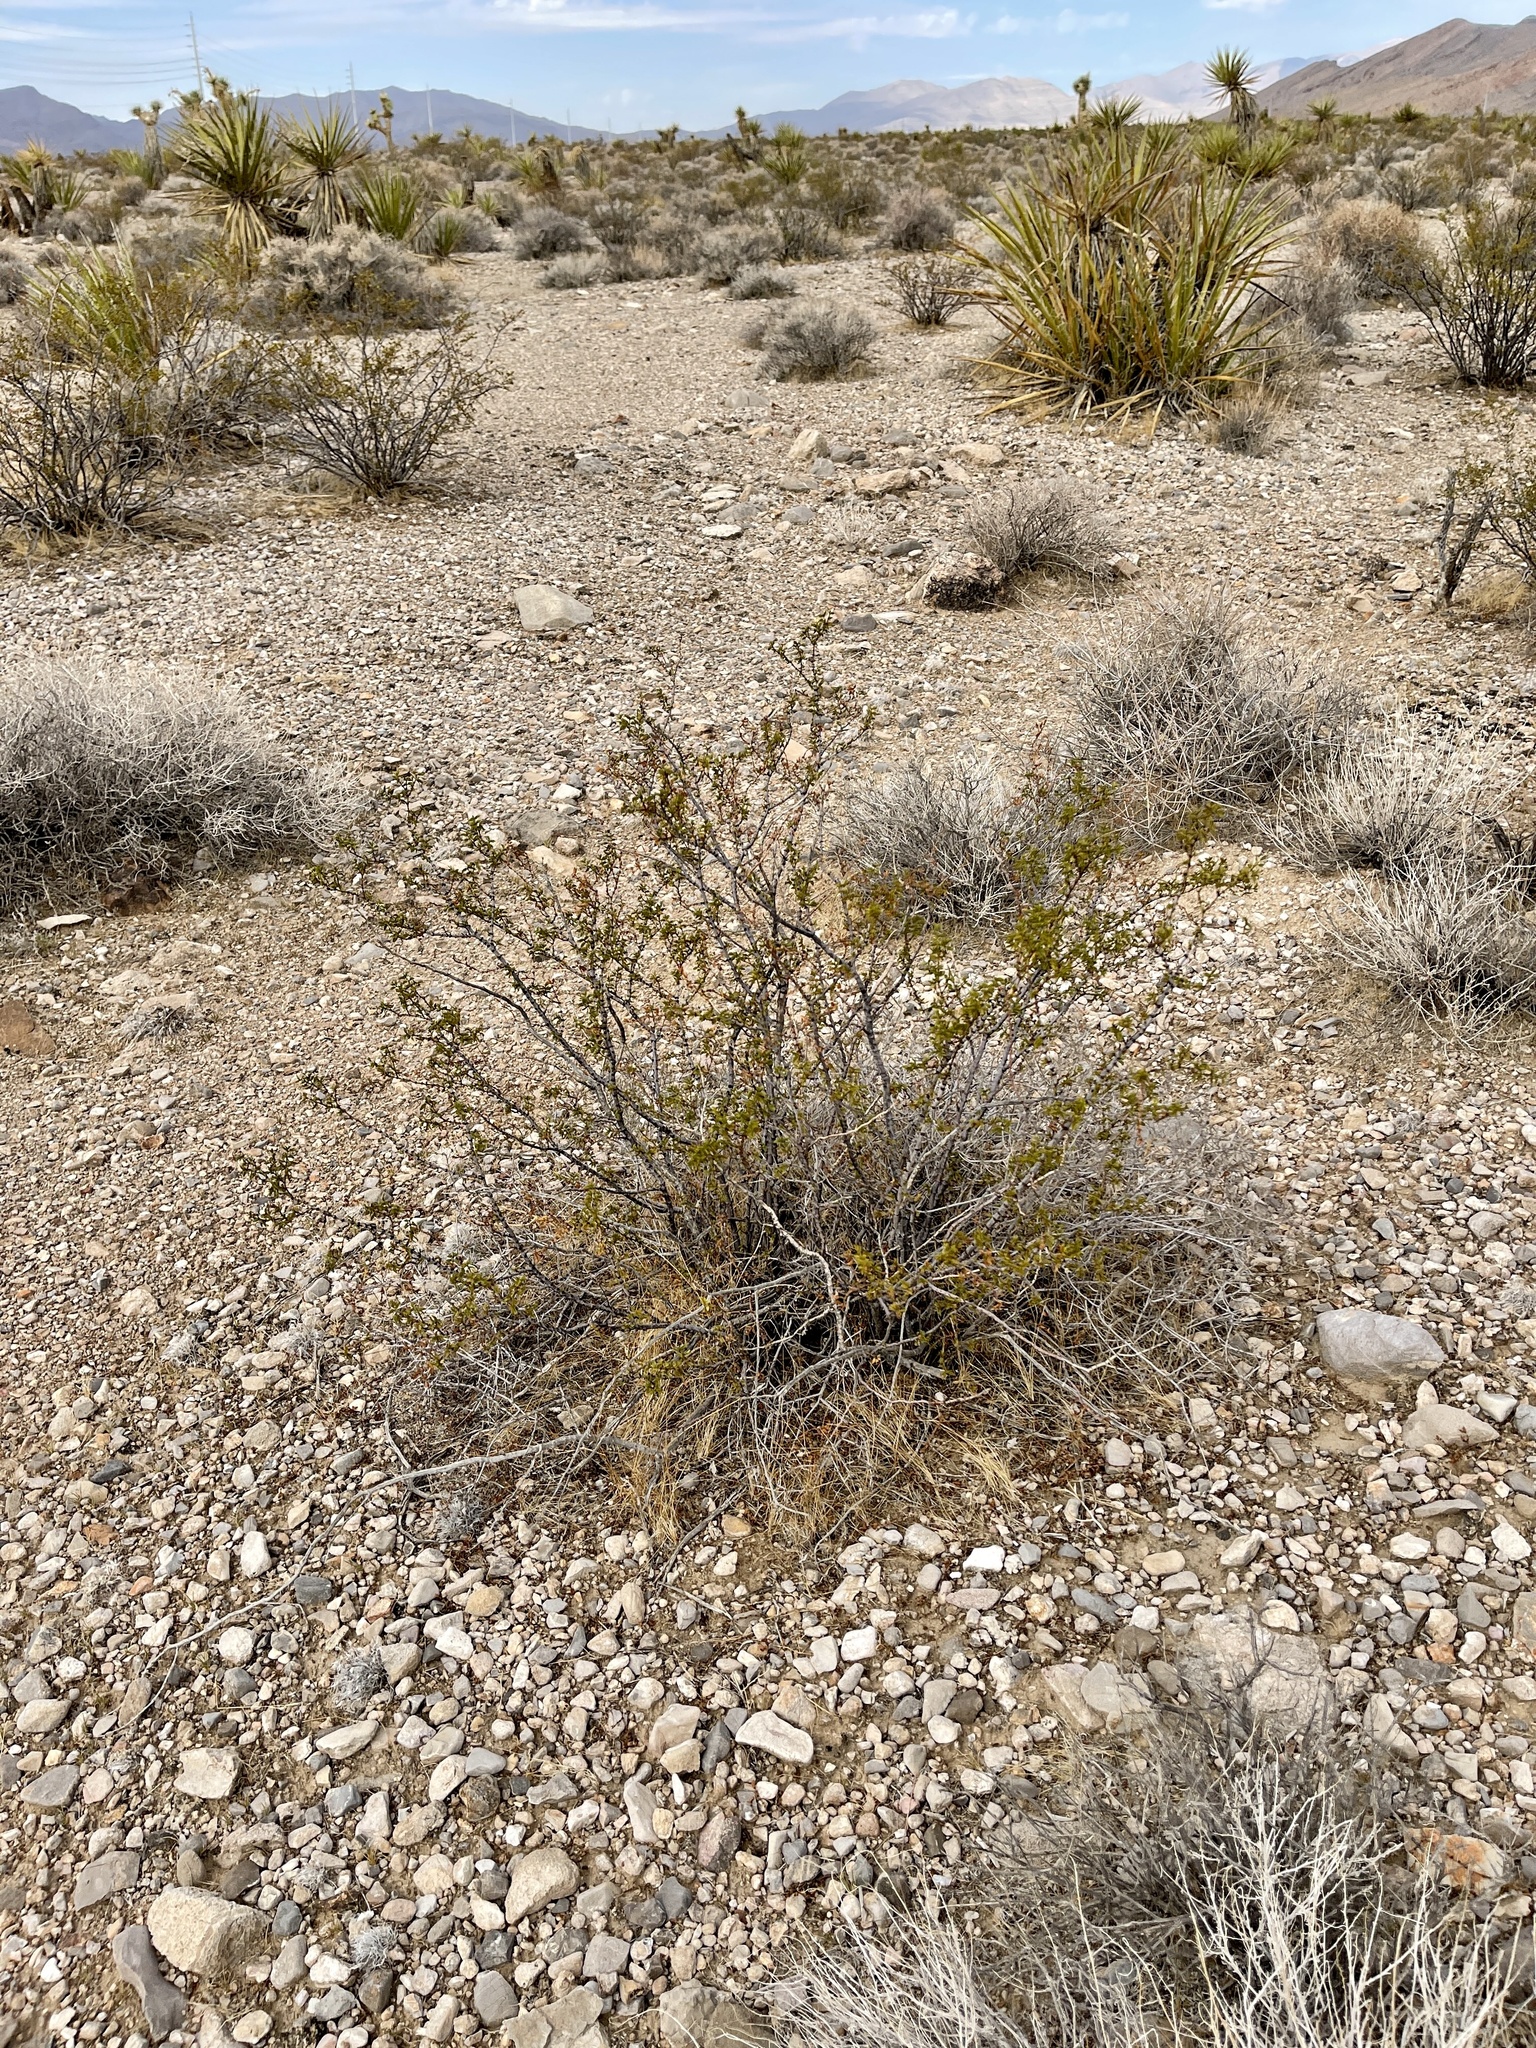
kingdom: Plantae
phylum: Tracheophyta
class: Magnoliopsida
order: Zygophyllales
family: Zygophyllaceae
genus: Larrea
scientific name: Larrea tridentata
